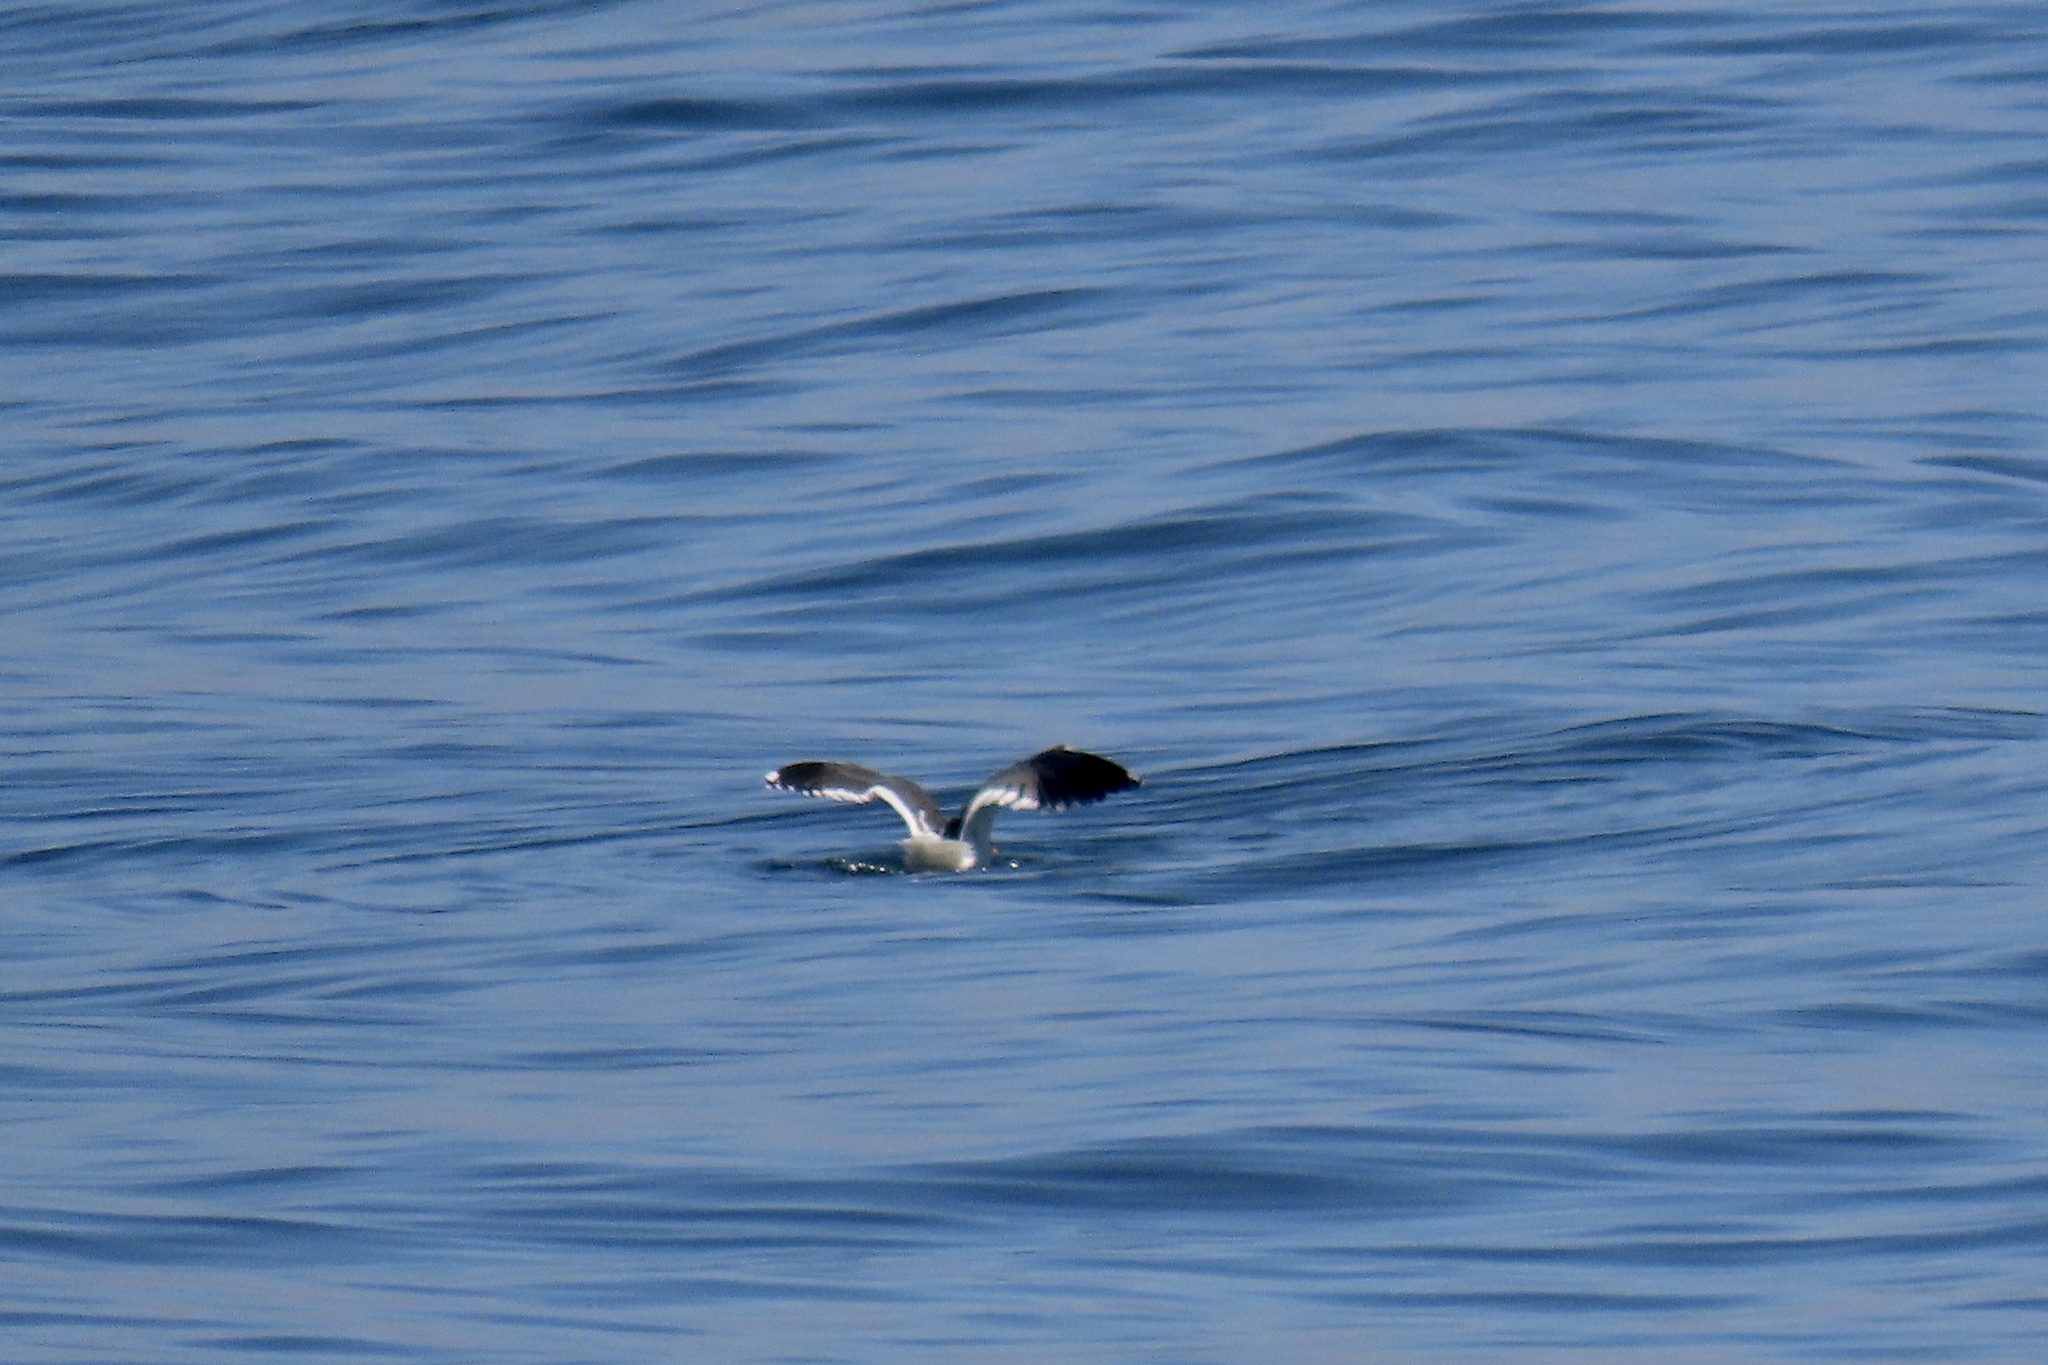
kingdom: Animalia
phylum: Chordata
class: Aves
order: Charadriiformes
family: Laridae
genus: Larus
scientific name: Larus occidentalis
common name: Western gull
